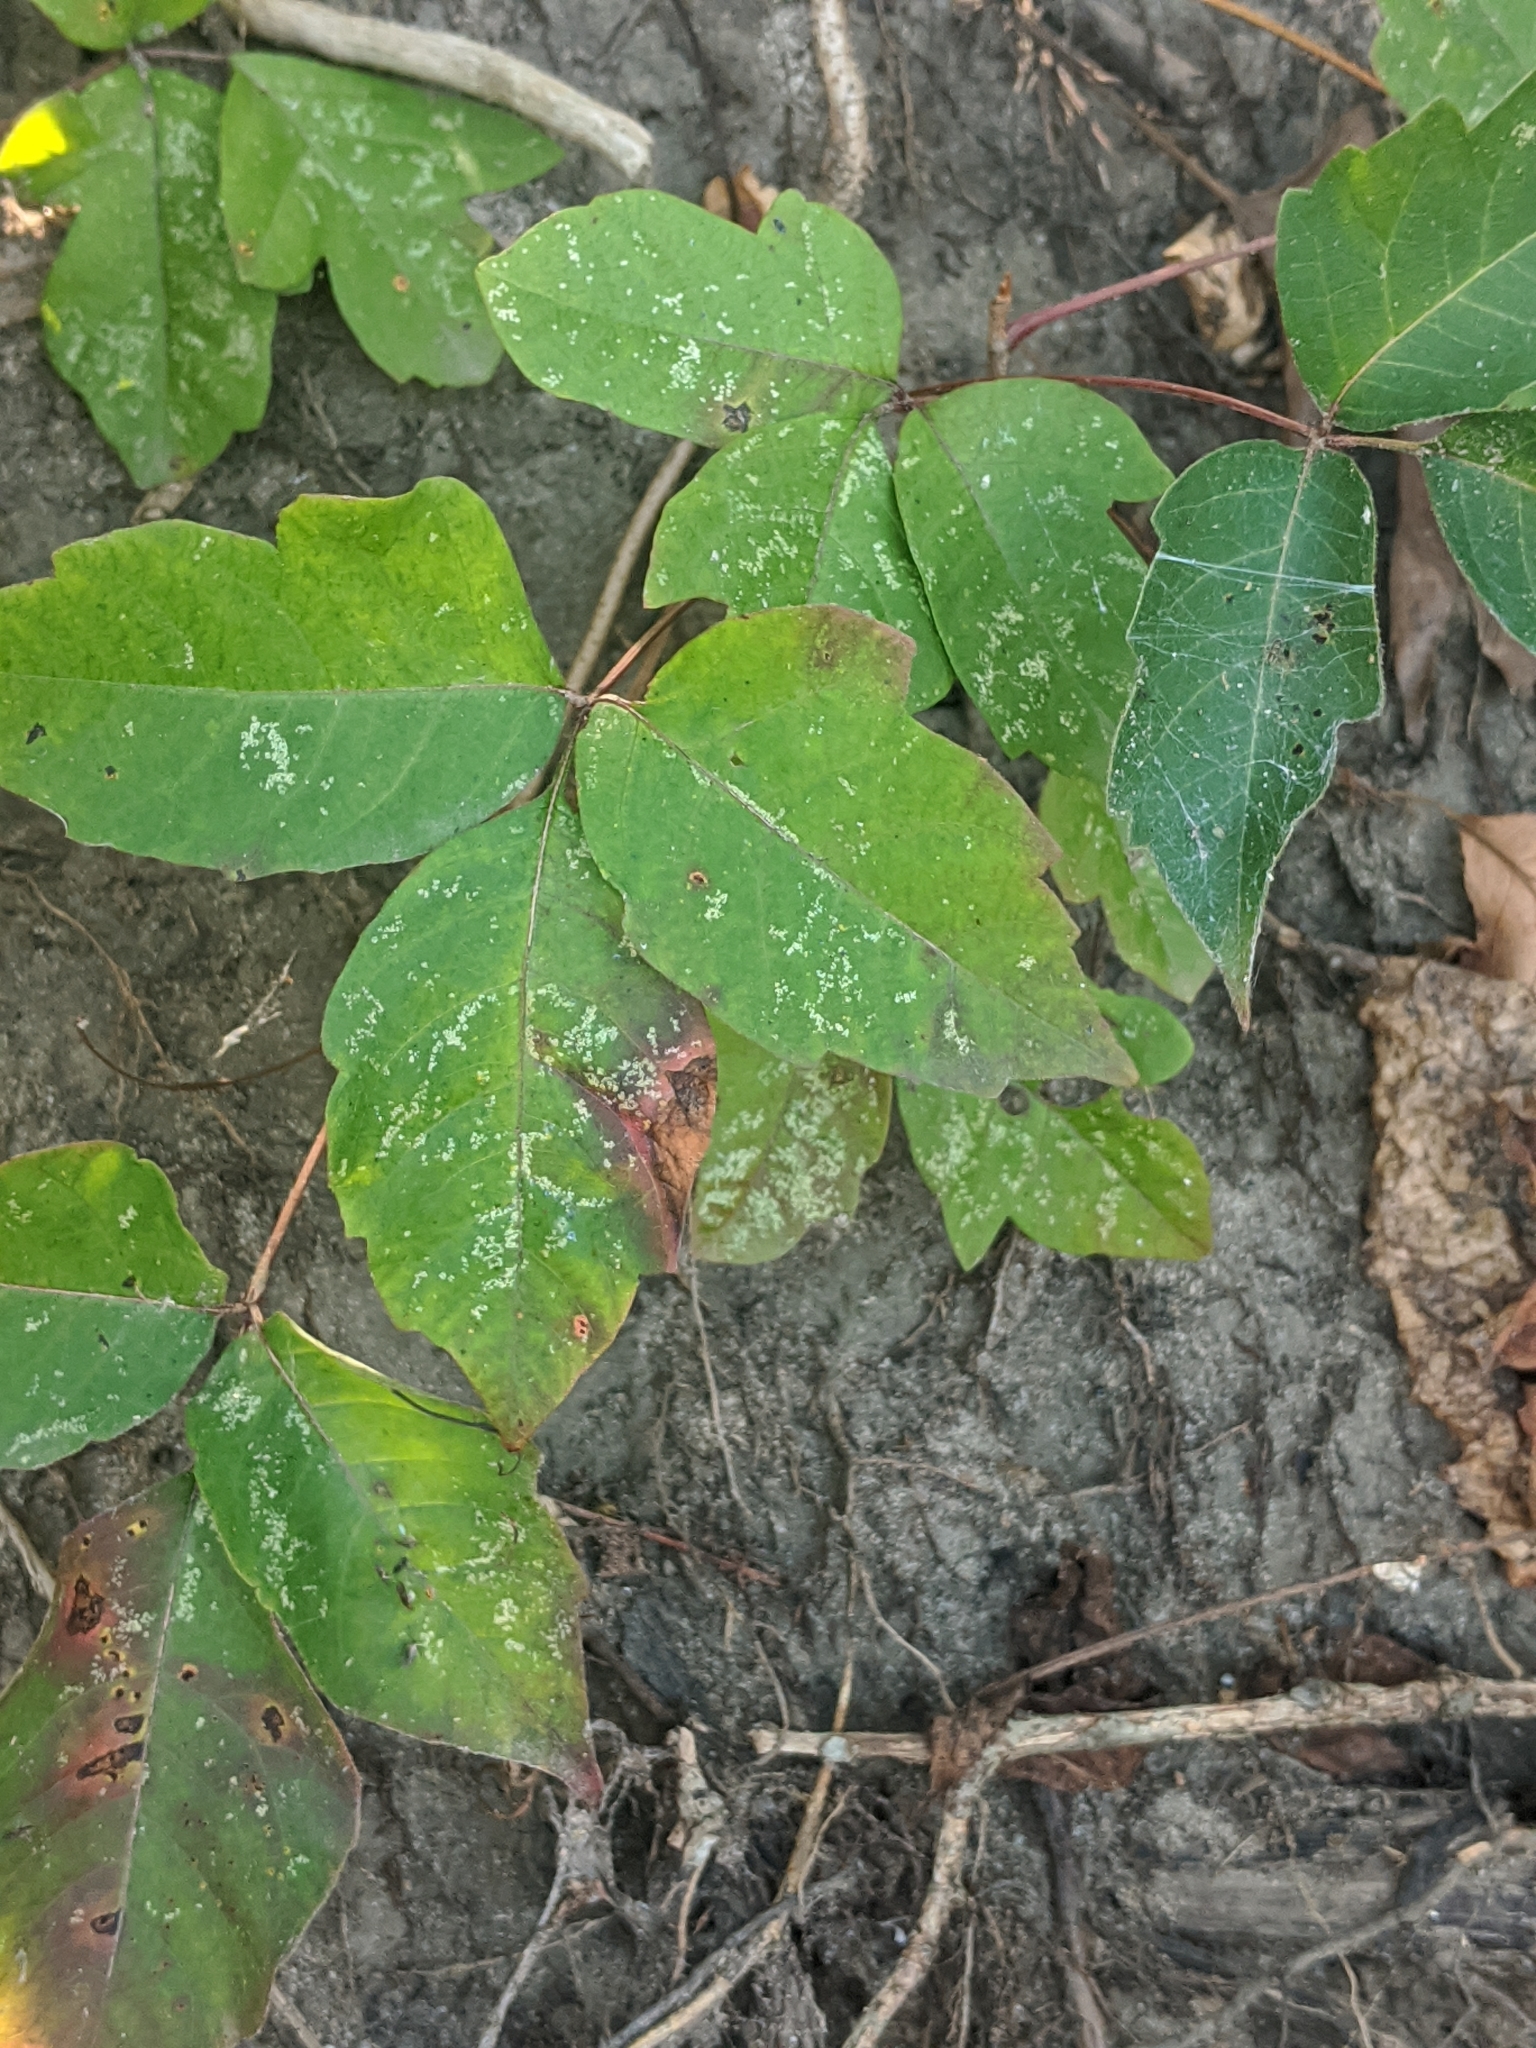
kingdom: Plantae
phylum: Tracheophyta
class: Magnoliopsida
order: Sapindales
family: Anacardiaceae
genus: Toxicodendron
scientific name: Toxicodendron radicans
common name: Poison ivy
